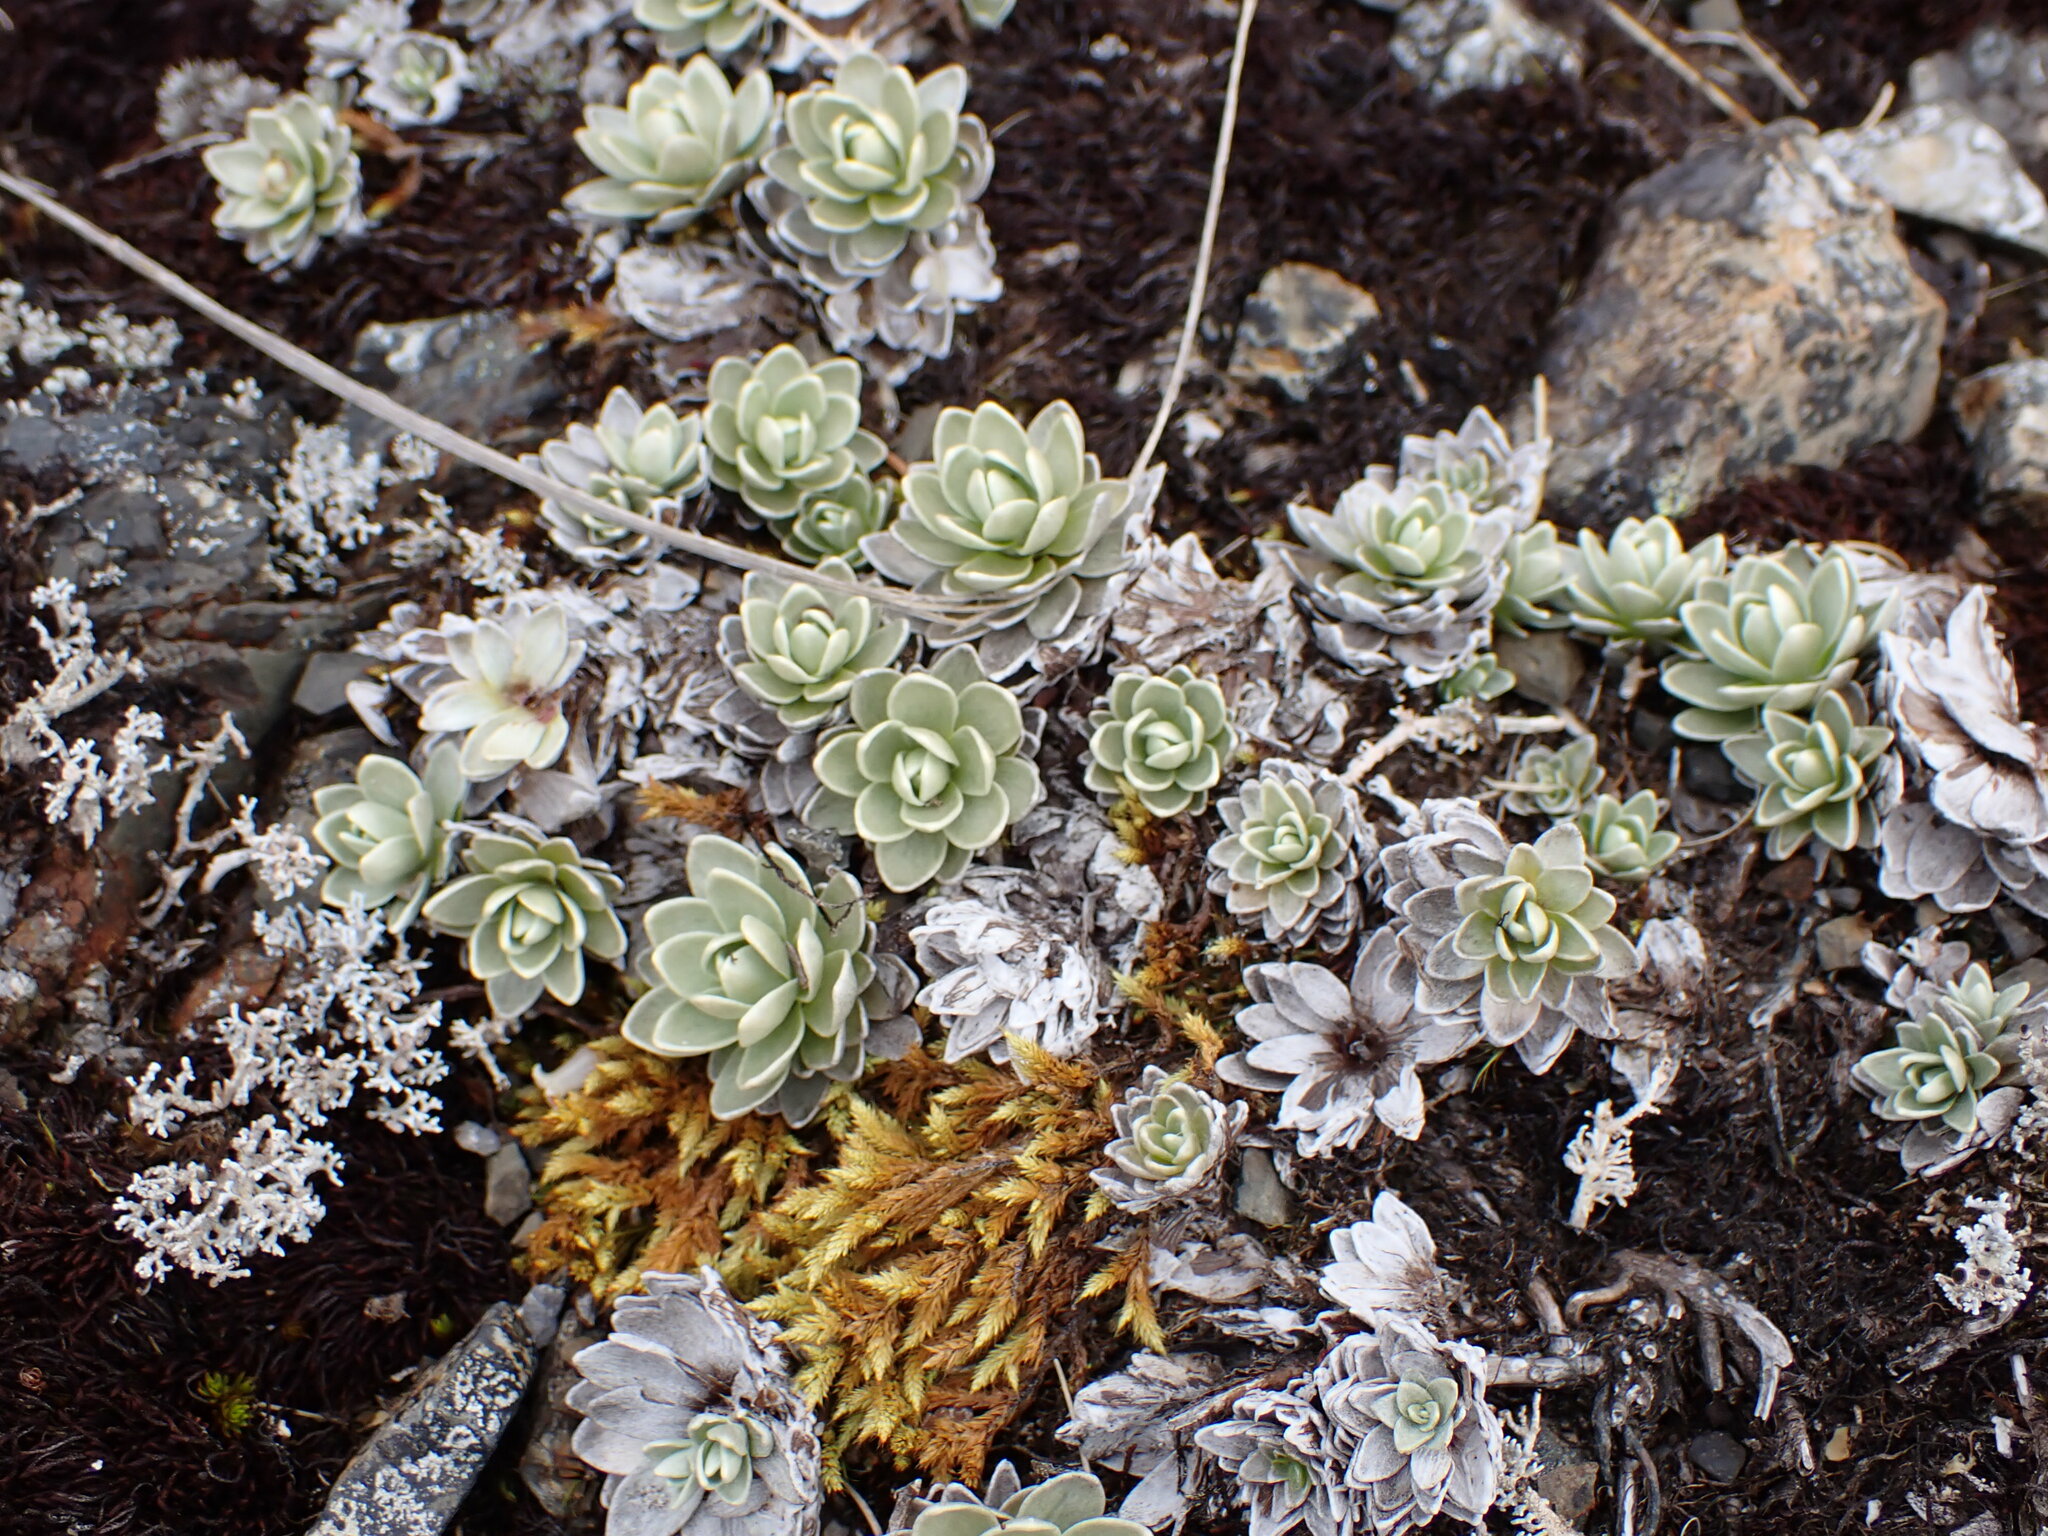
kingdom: Plantae
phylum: Tracheophyta
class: Magnoliopsida
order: Asterales
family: Asteraceae
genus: Leucogenes
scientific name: Leucogenes leontopodium
